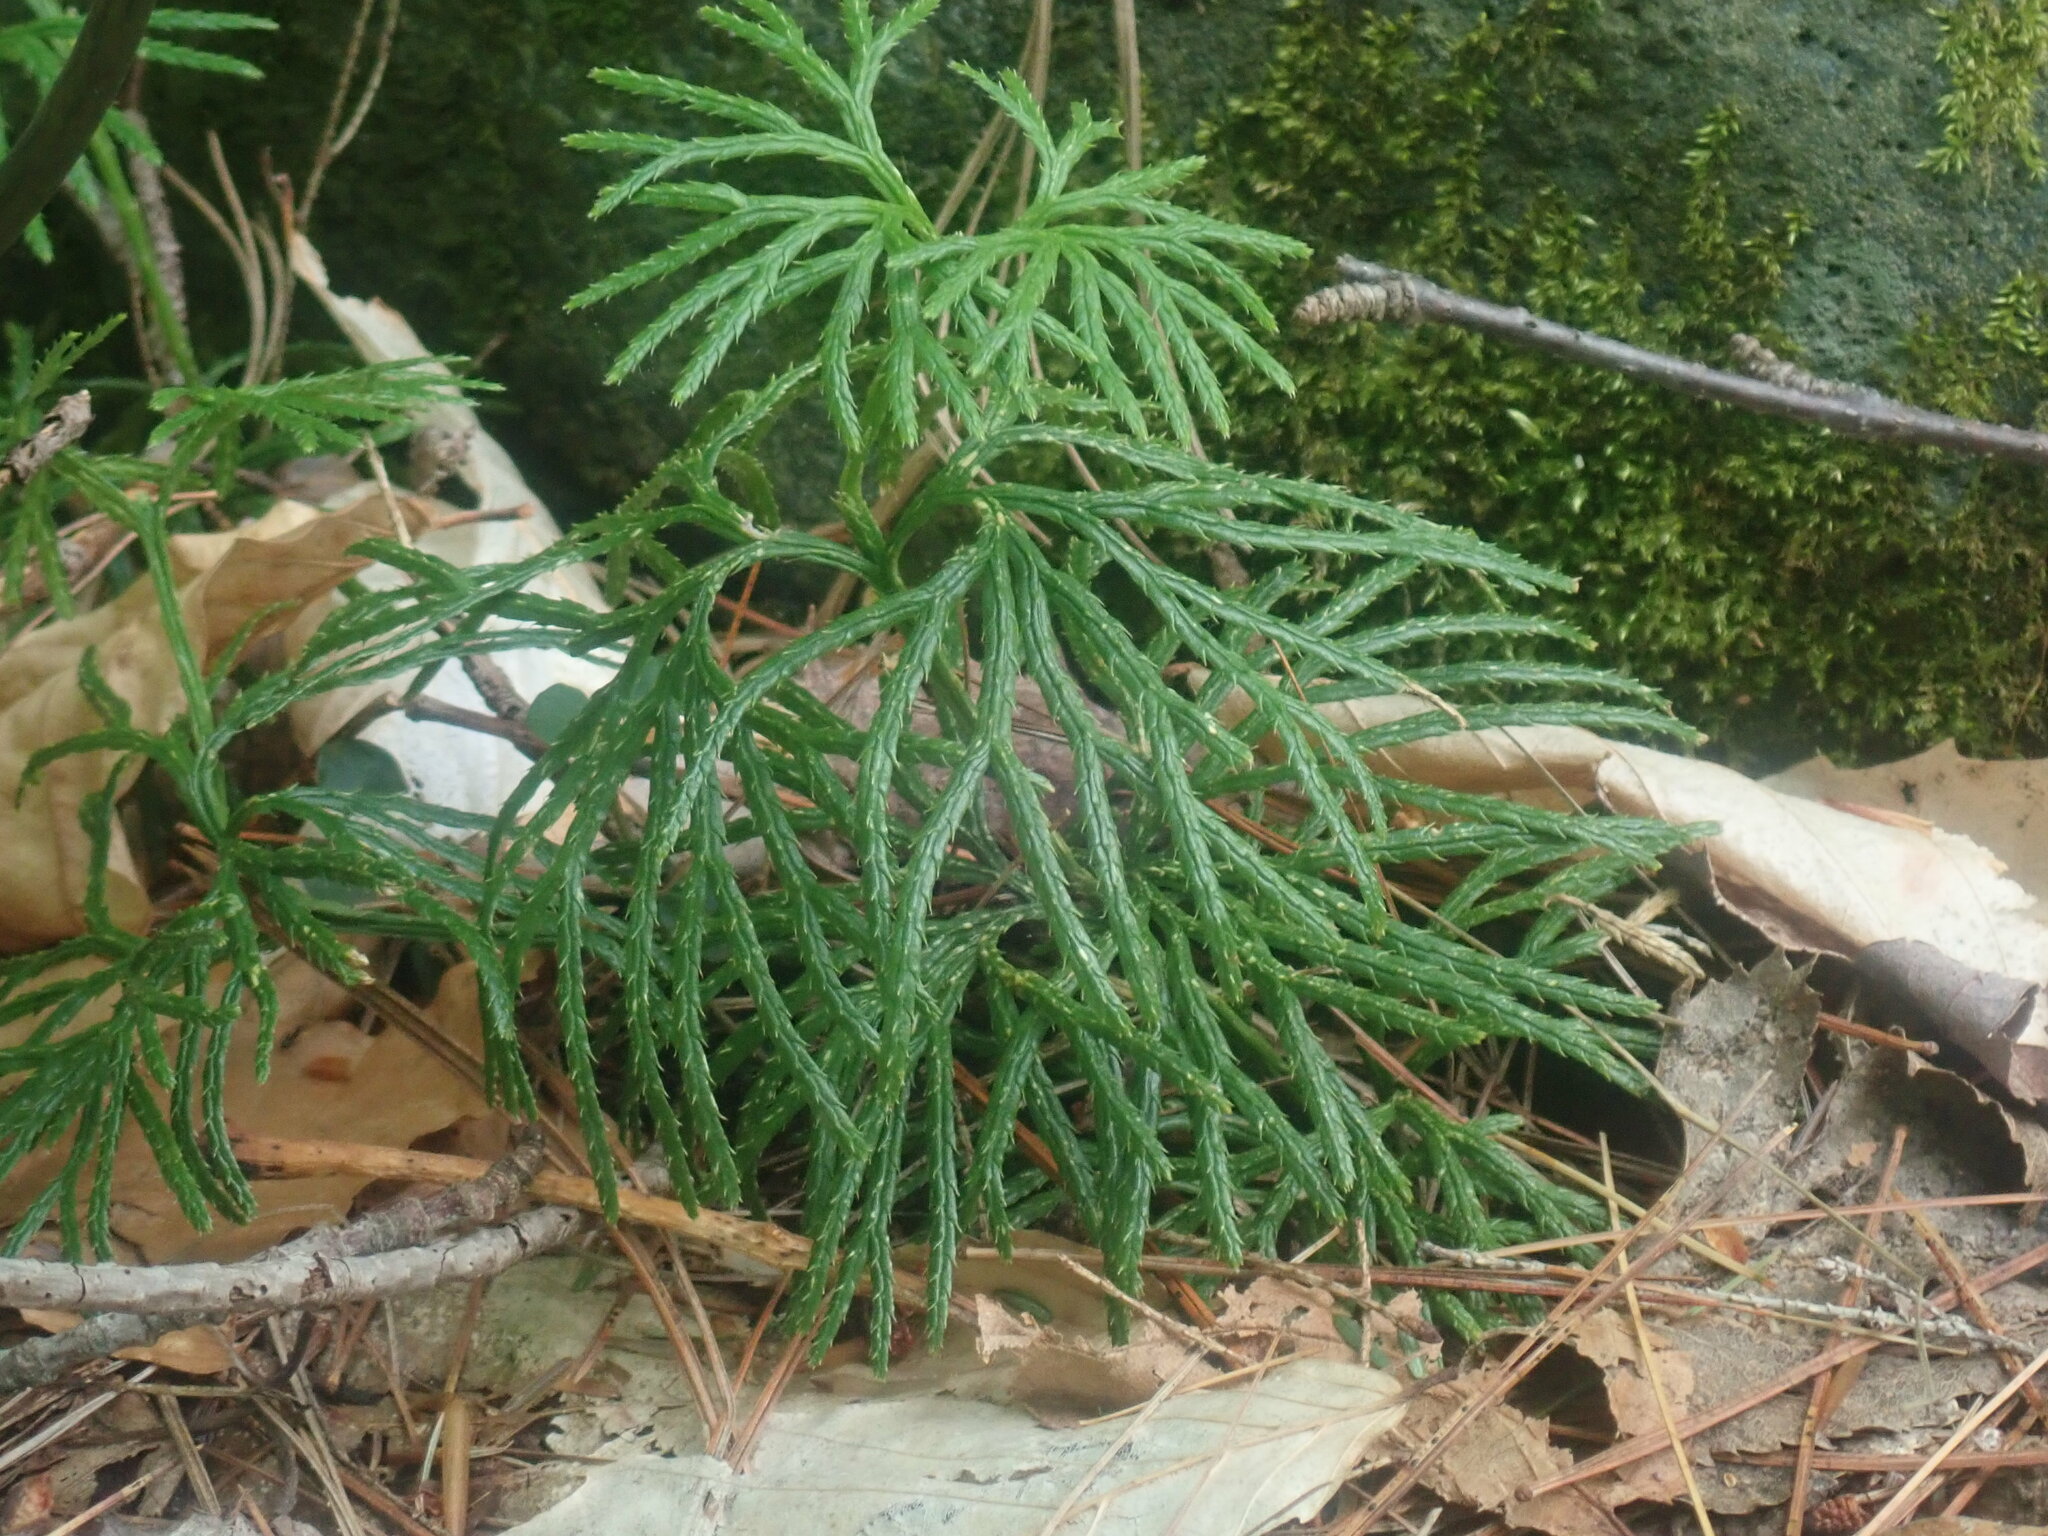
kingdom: Plantae
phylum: Tracheophyta
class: Lycopodiopsida
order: Lycopodiales
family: Lycopodiaceae
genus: Diphasiastrum
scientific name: Diphasiastrum digitatum
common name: Southern running-pine
